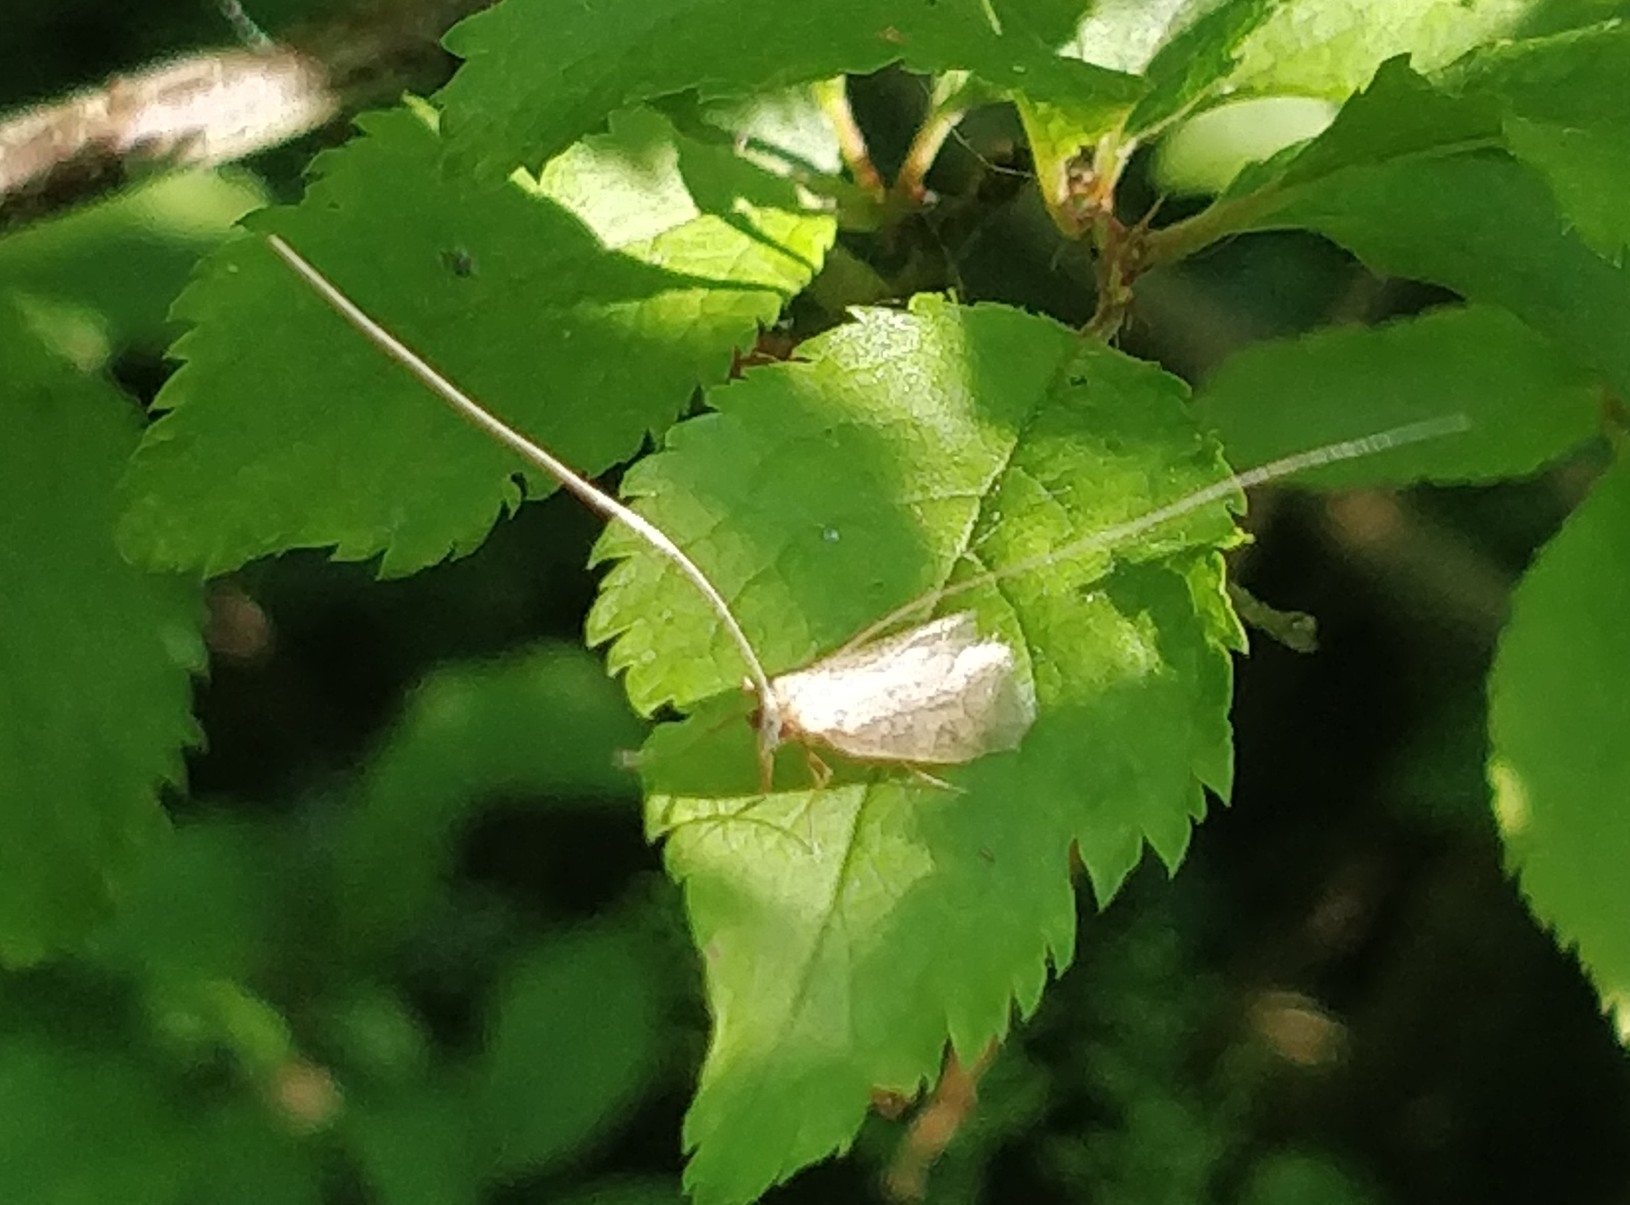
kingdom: Animalia
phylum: Arthropoda
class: Insecta
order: Lepidoptera
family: Adelidae
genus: Nematopogon
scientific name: Nematopogon swammerdamella
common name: Large long-horn
